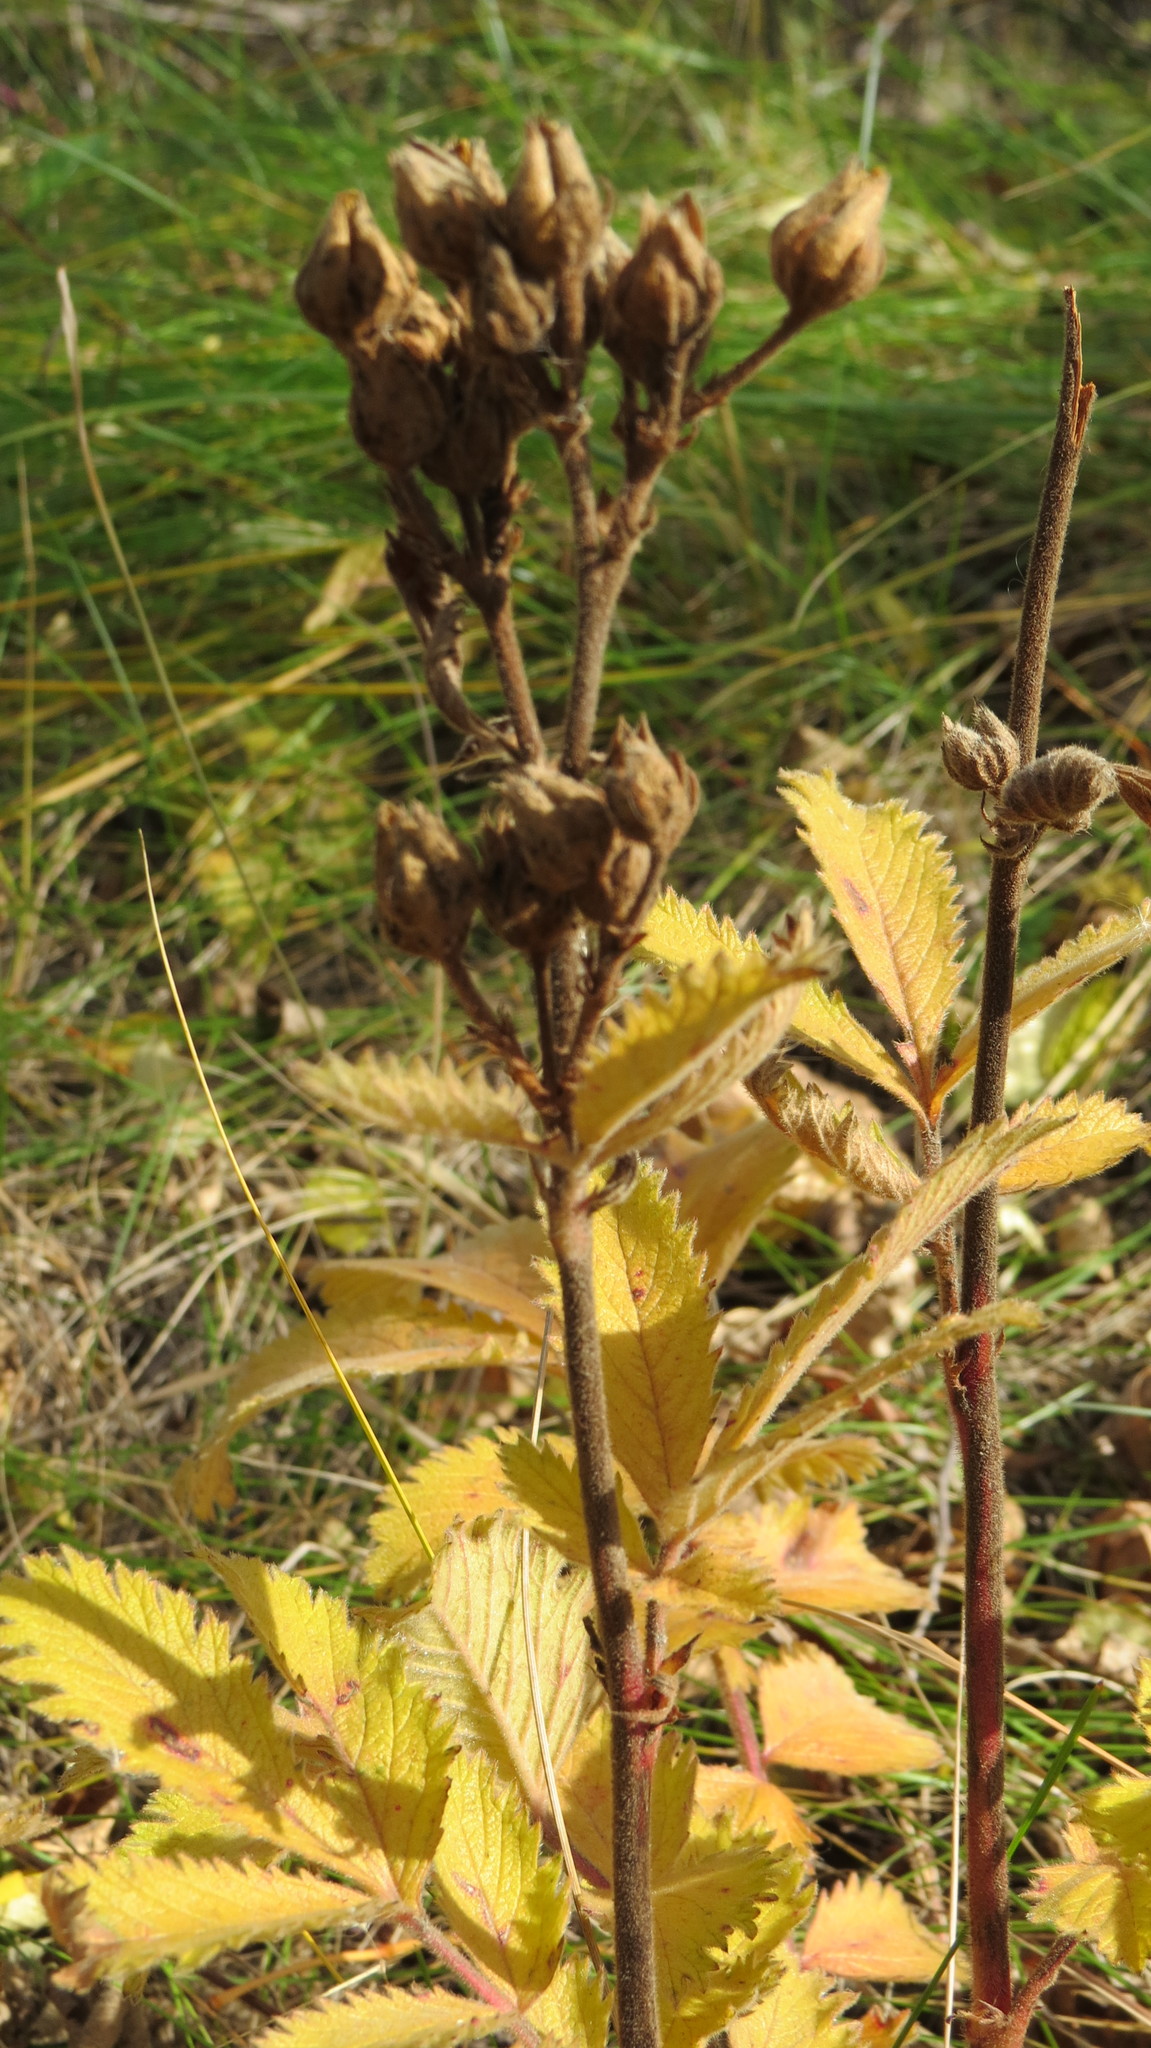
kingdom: Plantae
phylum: Tracheophyta
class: Magnoliopsida
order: Rosales
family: Rosaceae
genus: Drymocallis
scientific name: Drymocallis arguta
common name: Tall cinquefoil
